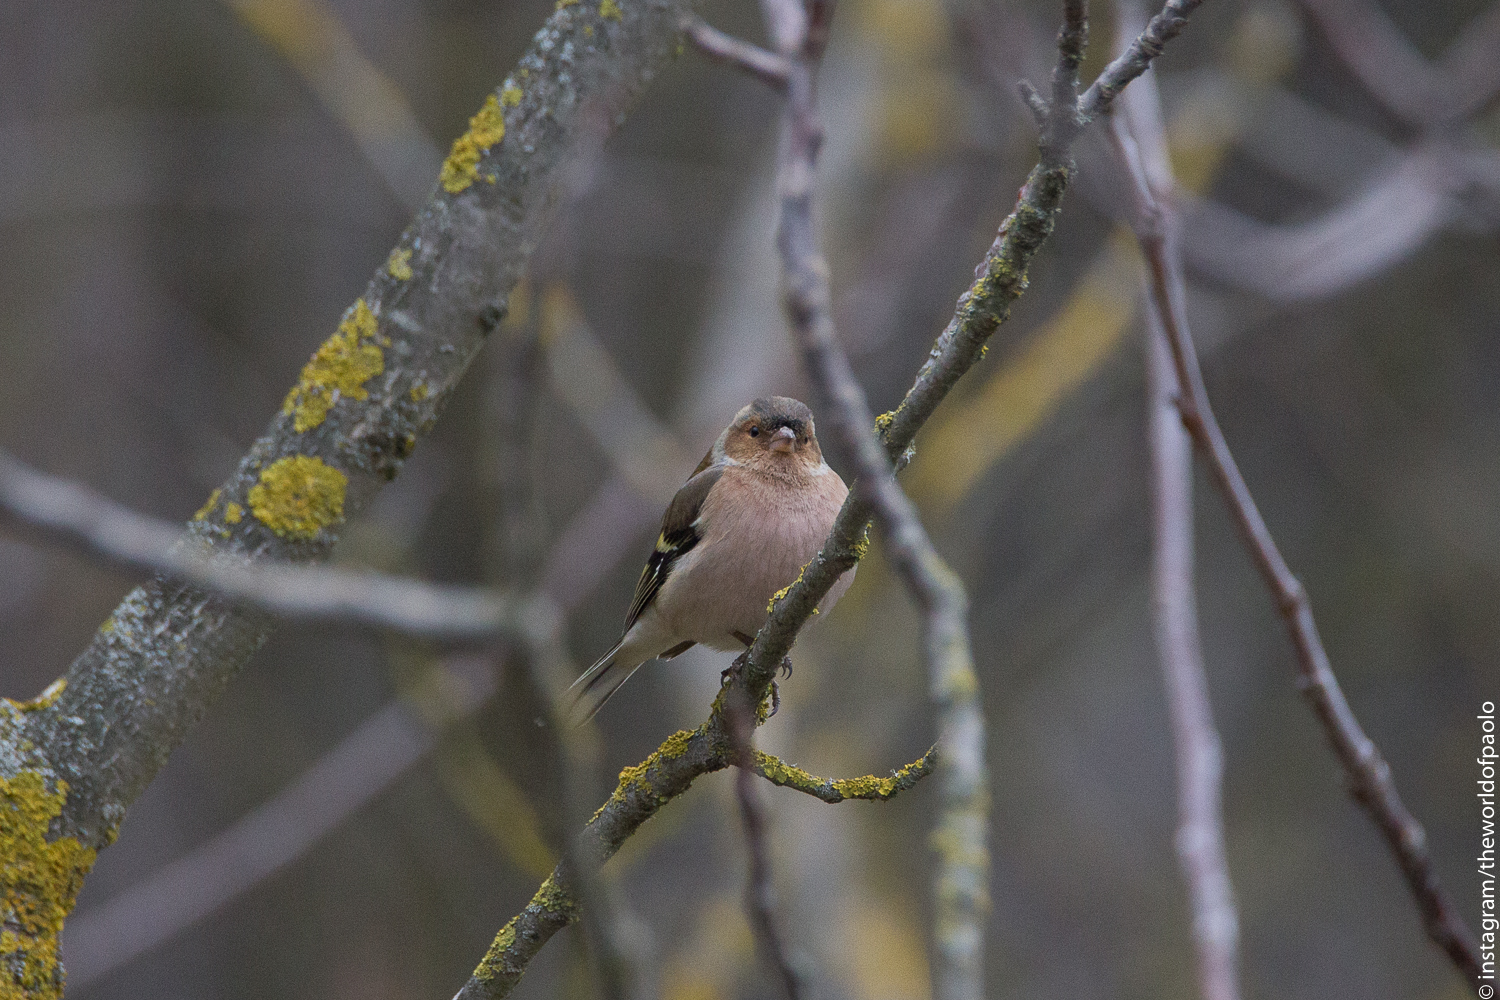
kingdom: Animalia
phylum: Chordata
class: Aves
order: Passeriformes
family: Fringillidae
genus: Fringilla
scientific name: Fringilla coelebs
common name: Common chaffinch
